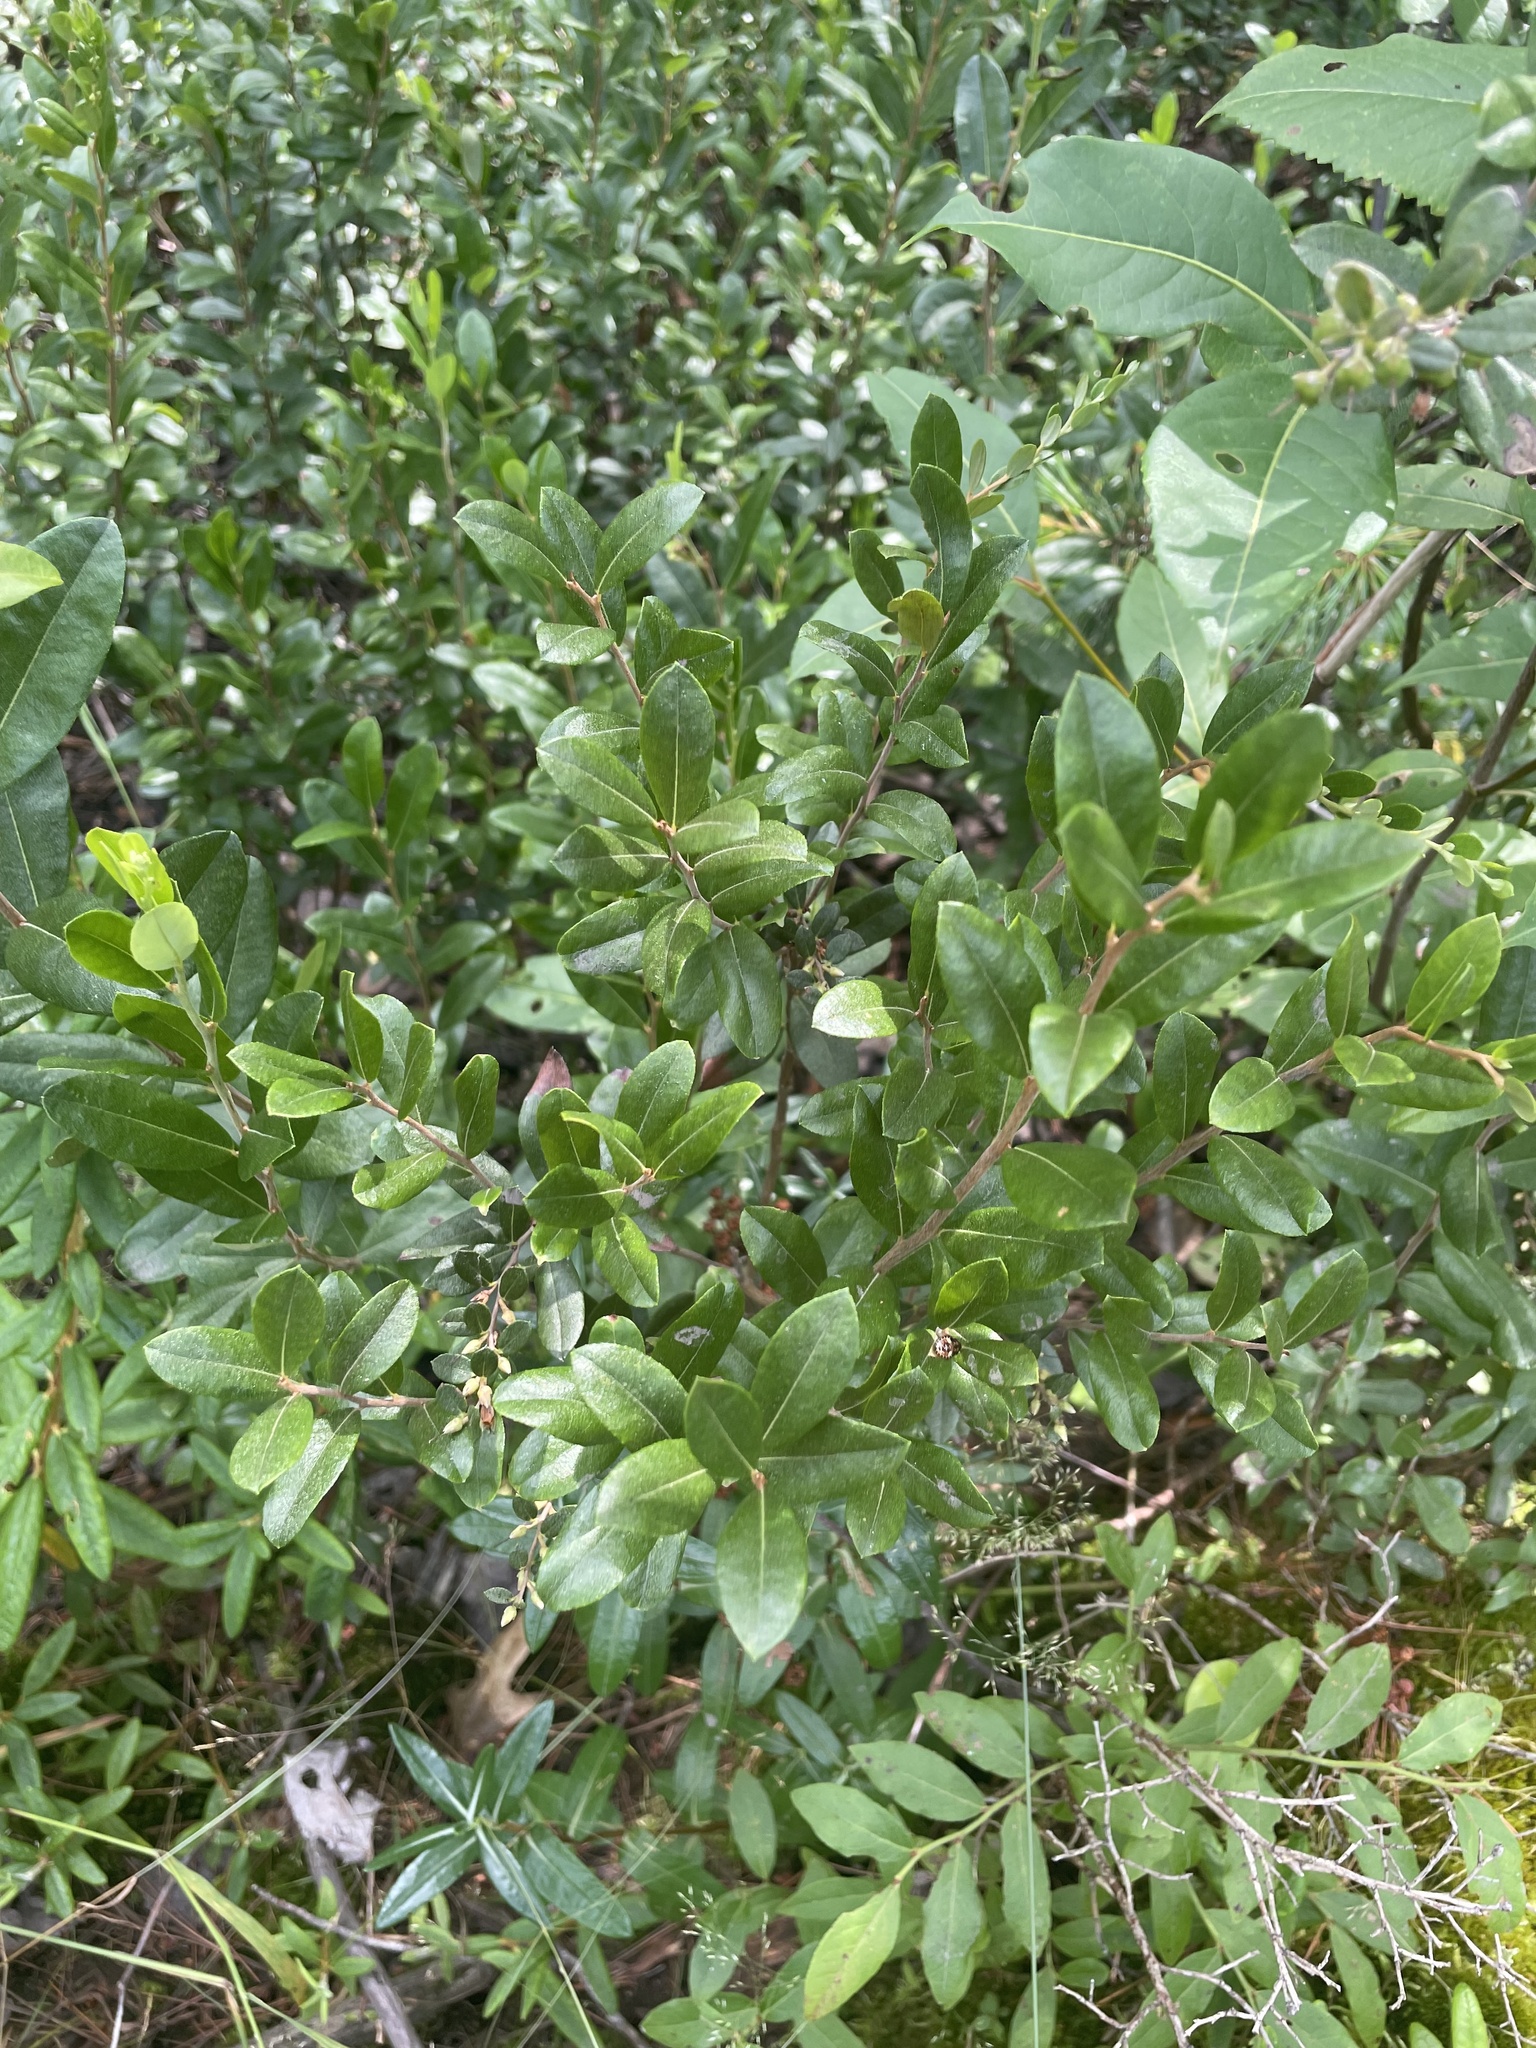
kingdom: Plantae
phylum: Tracheophyta
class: Magnoliopsida
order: Ericales
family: Ericaceae
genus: Chamaedaphne
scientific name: Chamaedaphne calyculata
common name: Leatherleaf
